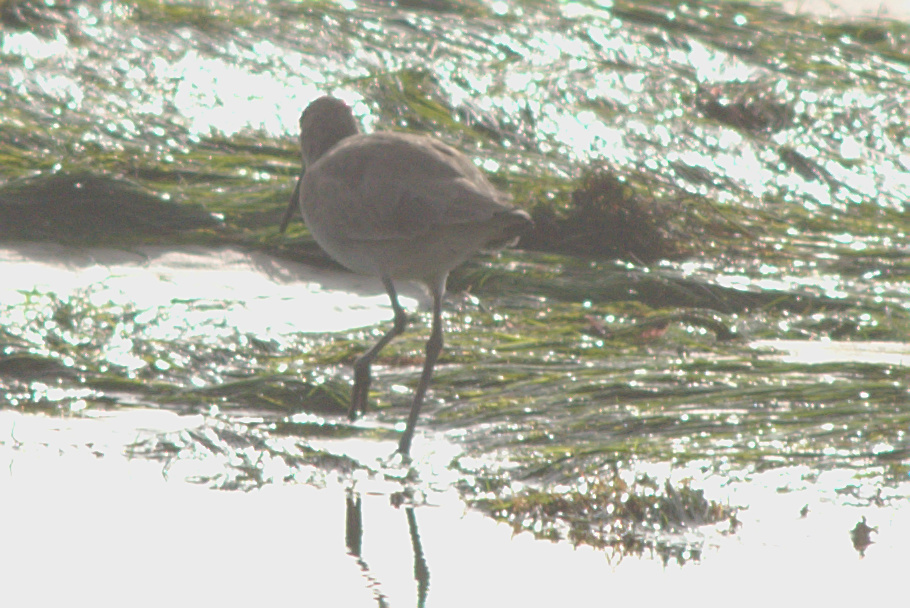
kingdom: Animalia
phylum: Chordata
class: Aves
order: Charadriiformes
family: Scolopacidae
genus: Tringa
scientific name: Tringa semipalmata
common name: Willet
